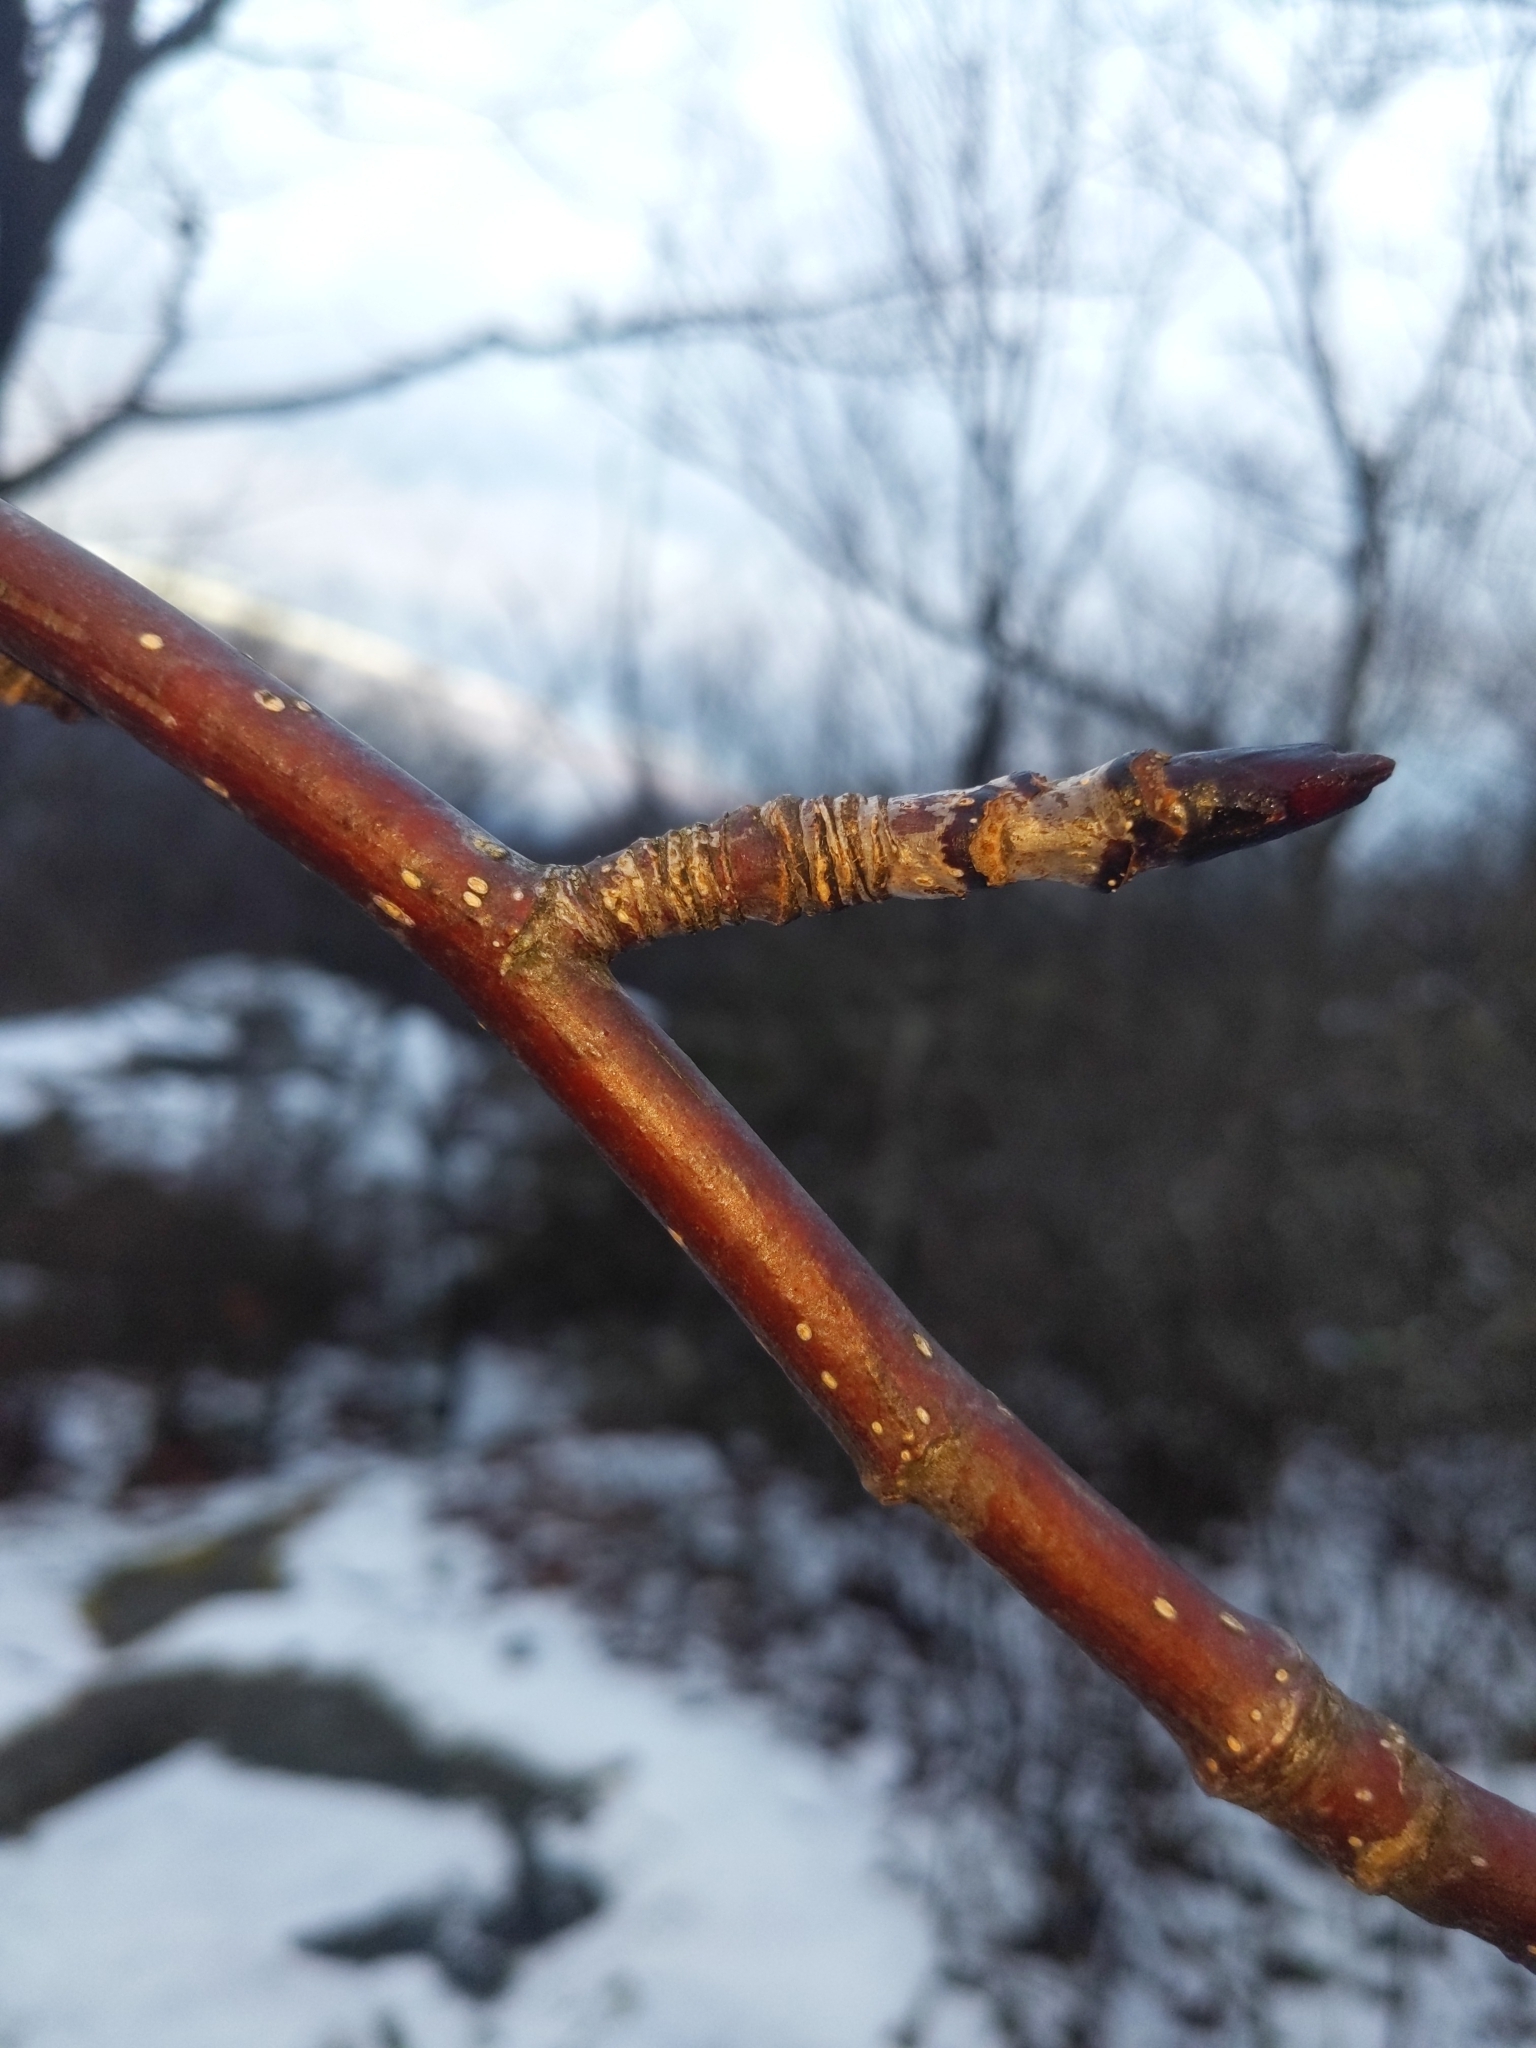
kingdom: Plantae
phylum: Tracheophyta
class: Magnoliopsida
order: Rosales
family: Rosaceae
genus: Sorbus
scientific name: Sorbus americana
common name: American mountain-ash
